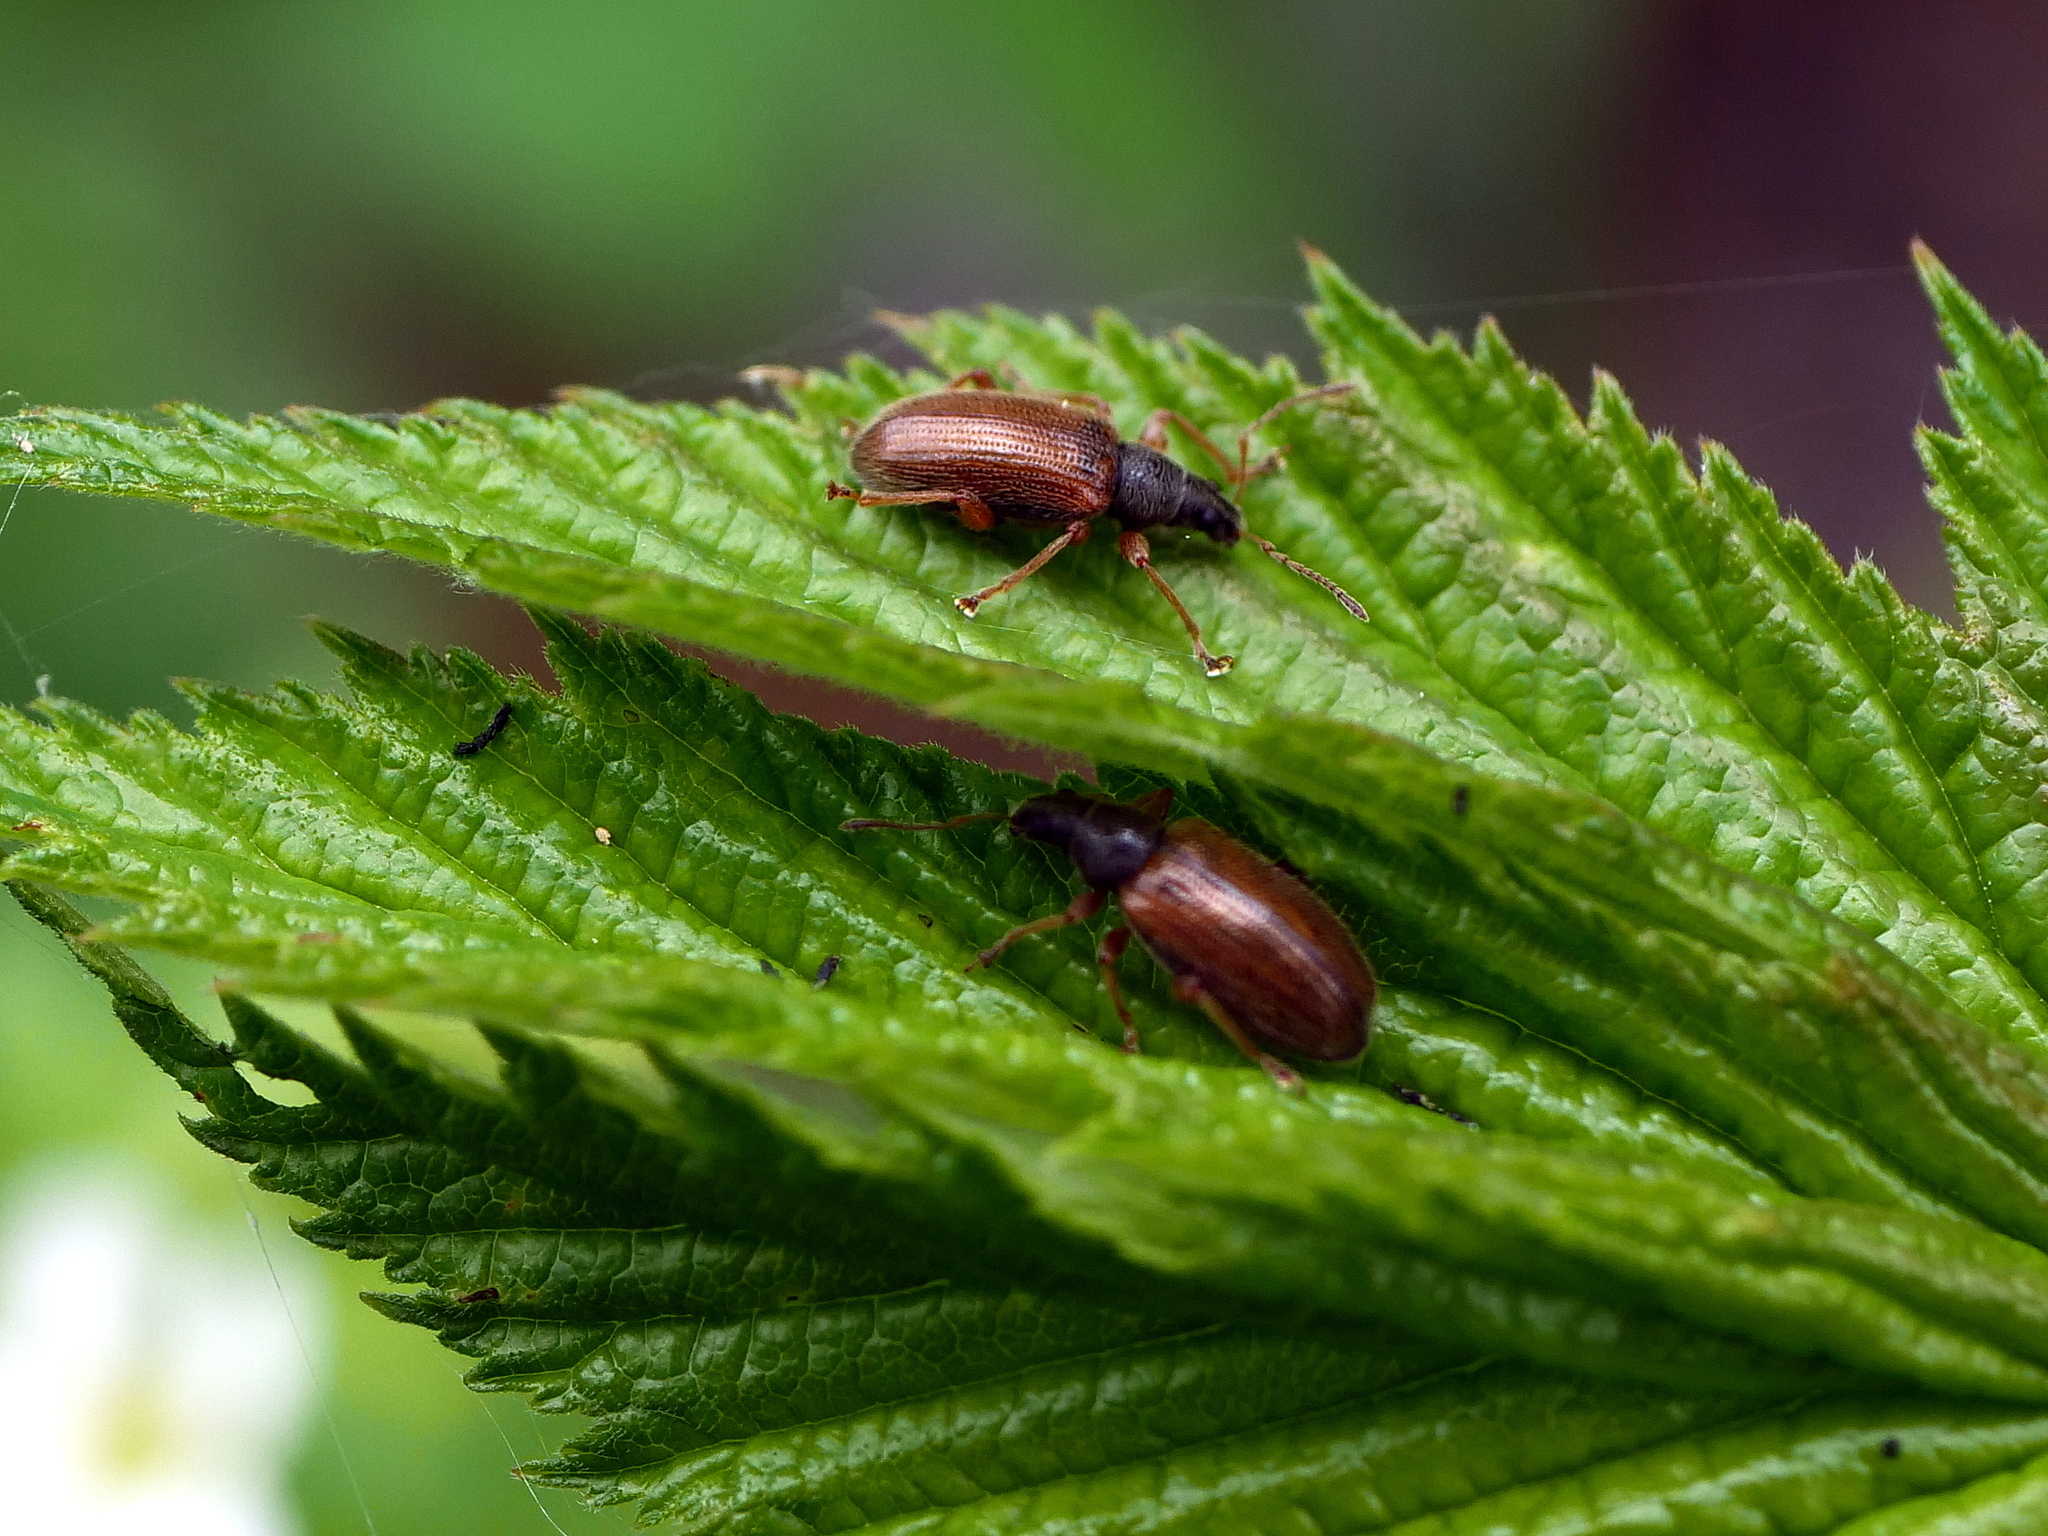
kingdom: Animalia
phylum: Arthropoda
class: Insecta
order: Coleoptera
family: Curculionidae
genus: Phyllobius
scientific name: Phyllobius oblongus
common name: Brown leaf weevil
